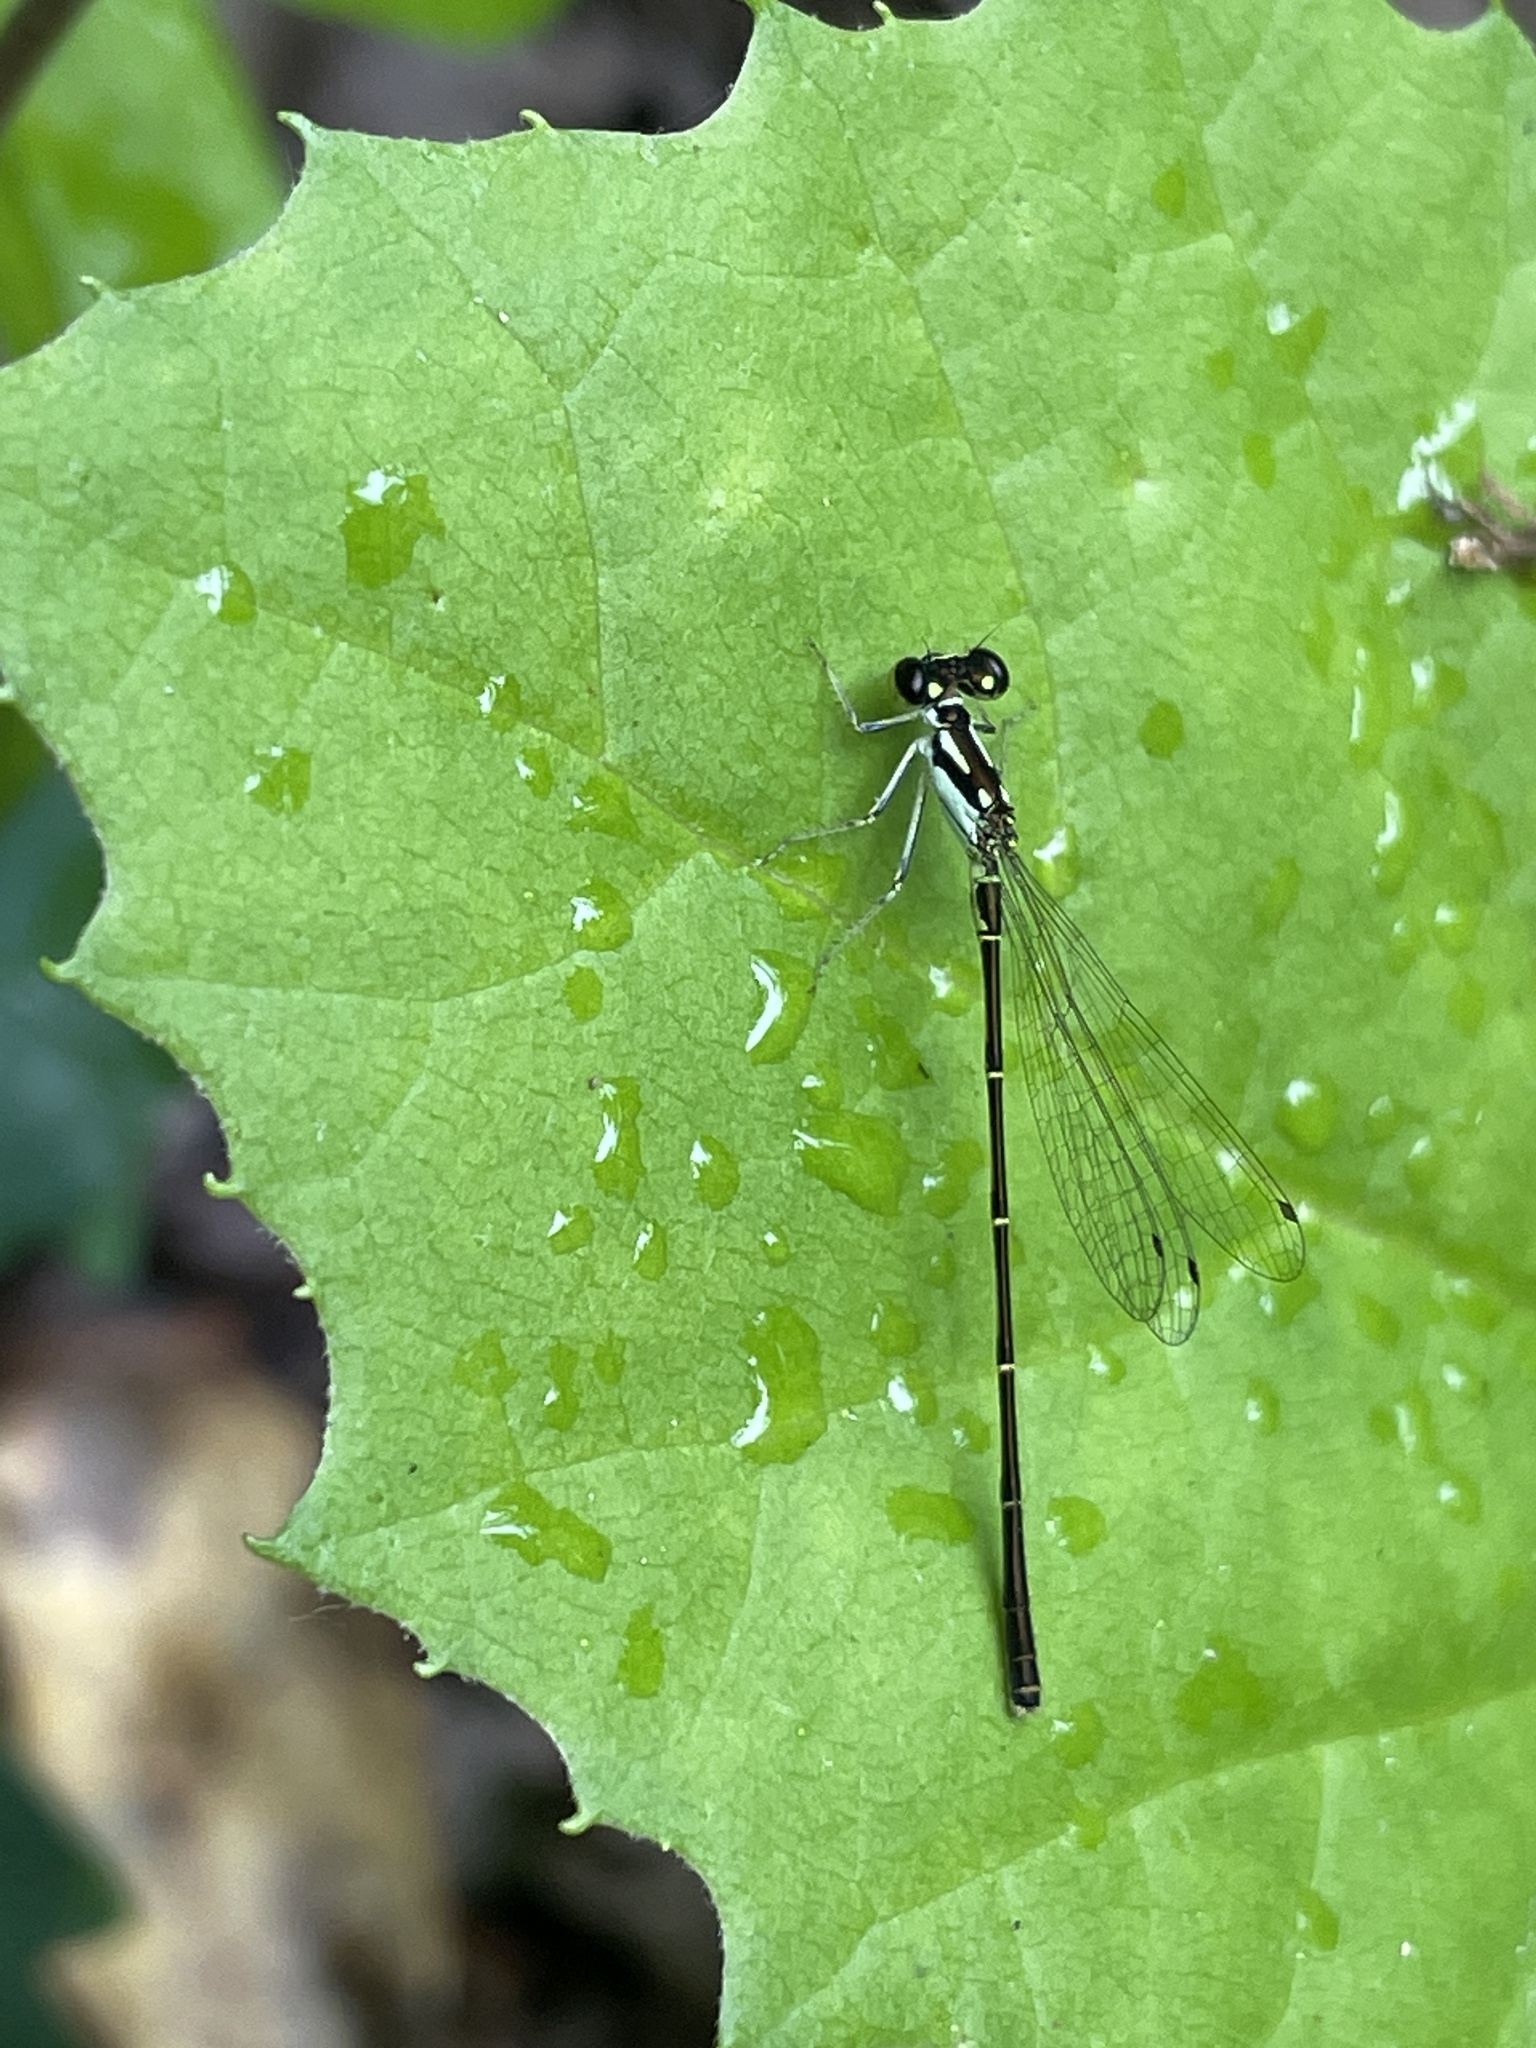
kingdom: Animalia
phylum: Arthropoda
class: Insecta
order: Odonata
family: Coenagrionidae
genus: Ischnura
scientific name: Ischnura posita
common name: Fragile forktail
